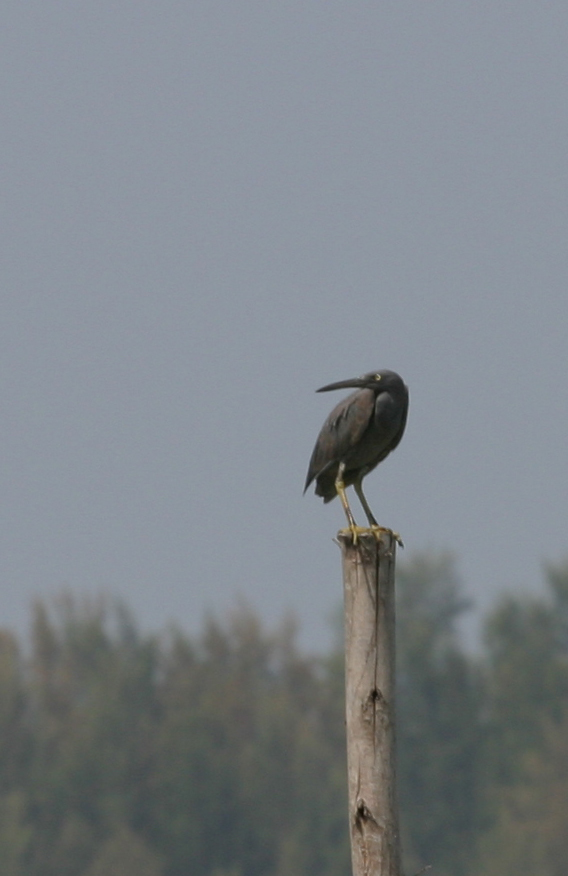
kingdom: Animalia
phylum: Chordata
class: Aves
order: Pelecaniformes
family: Ardeidae
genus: Egretta
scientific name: Egretta sacra
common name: Pacific reef heron
